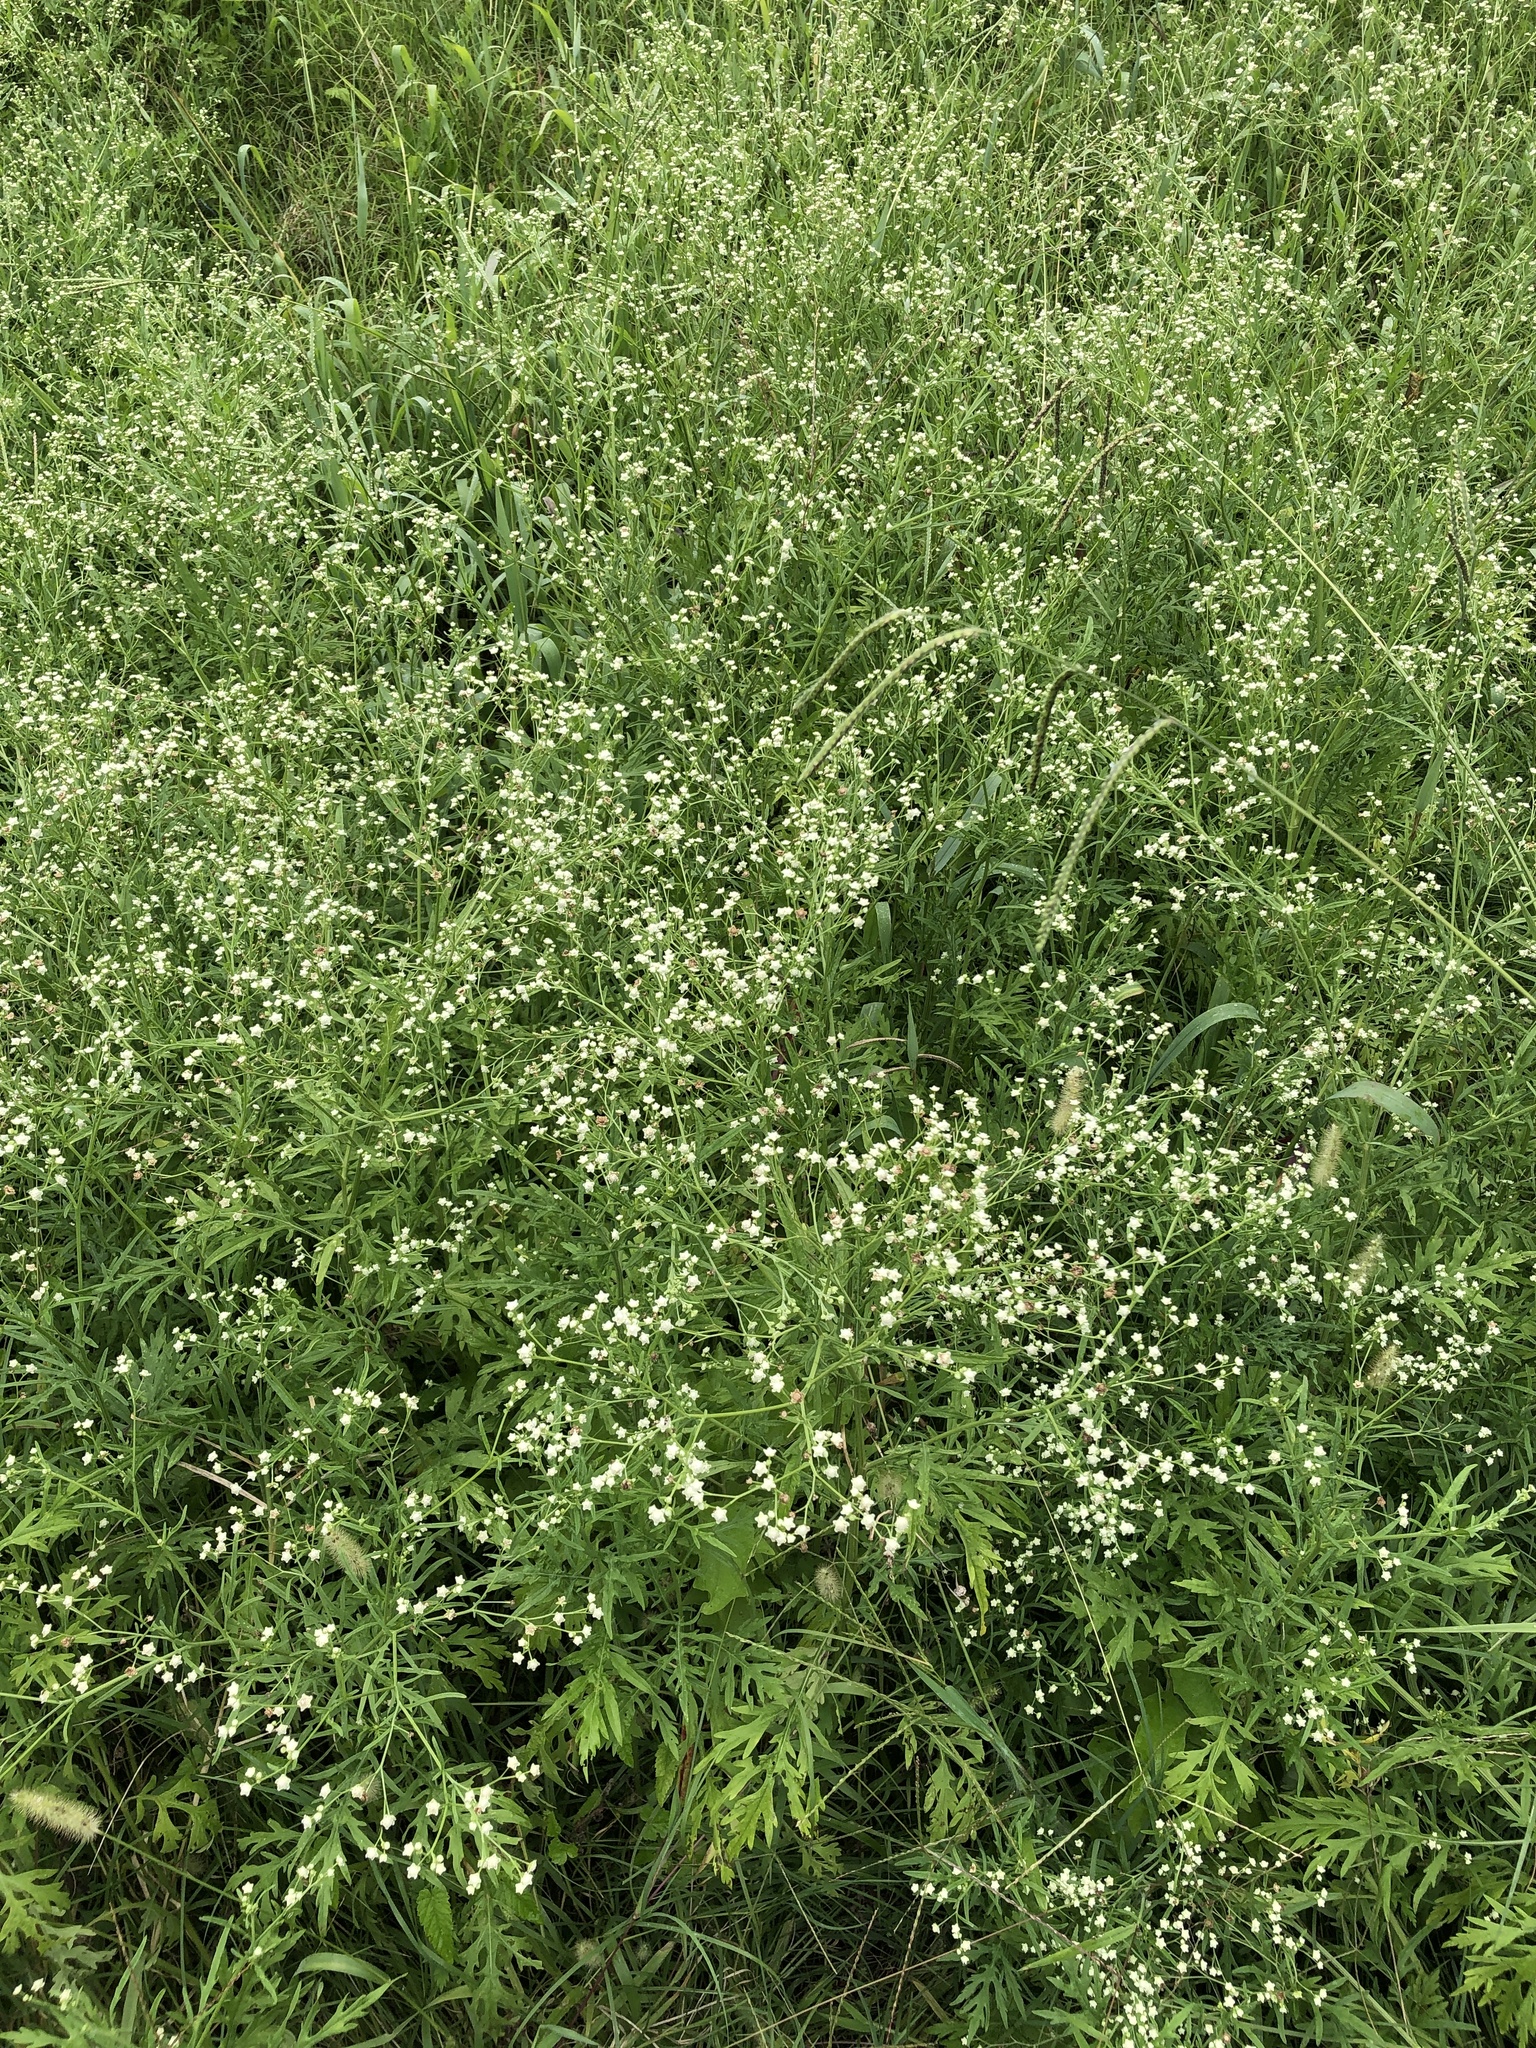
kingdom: Plantae
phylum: Tracheophyta
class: Magnoliopsida
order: Asterales
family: Asteraceae
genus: Parthenium
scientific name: Parthenium hysterophorus
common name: Santa maria feverfew
